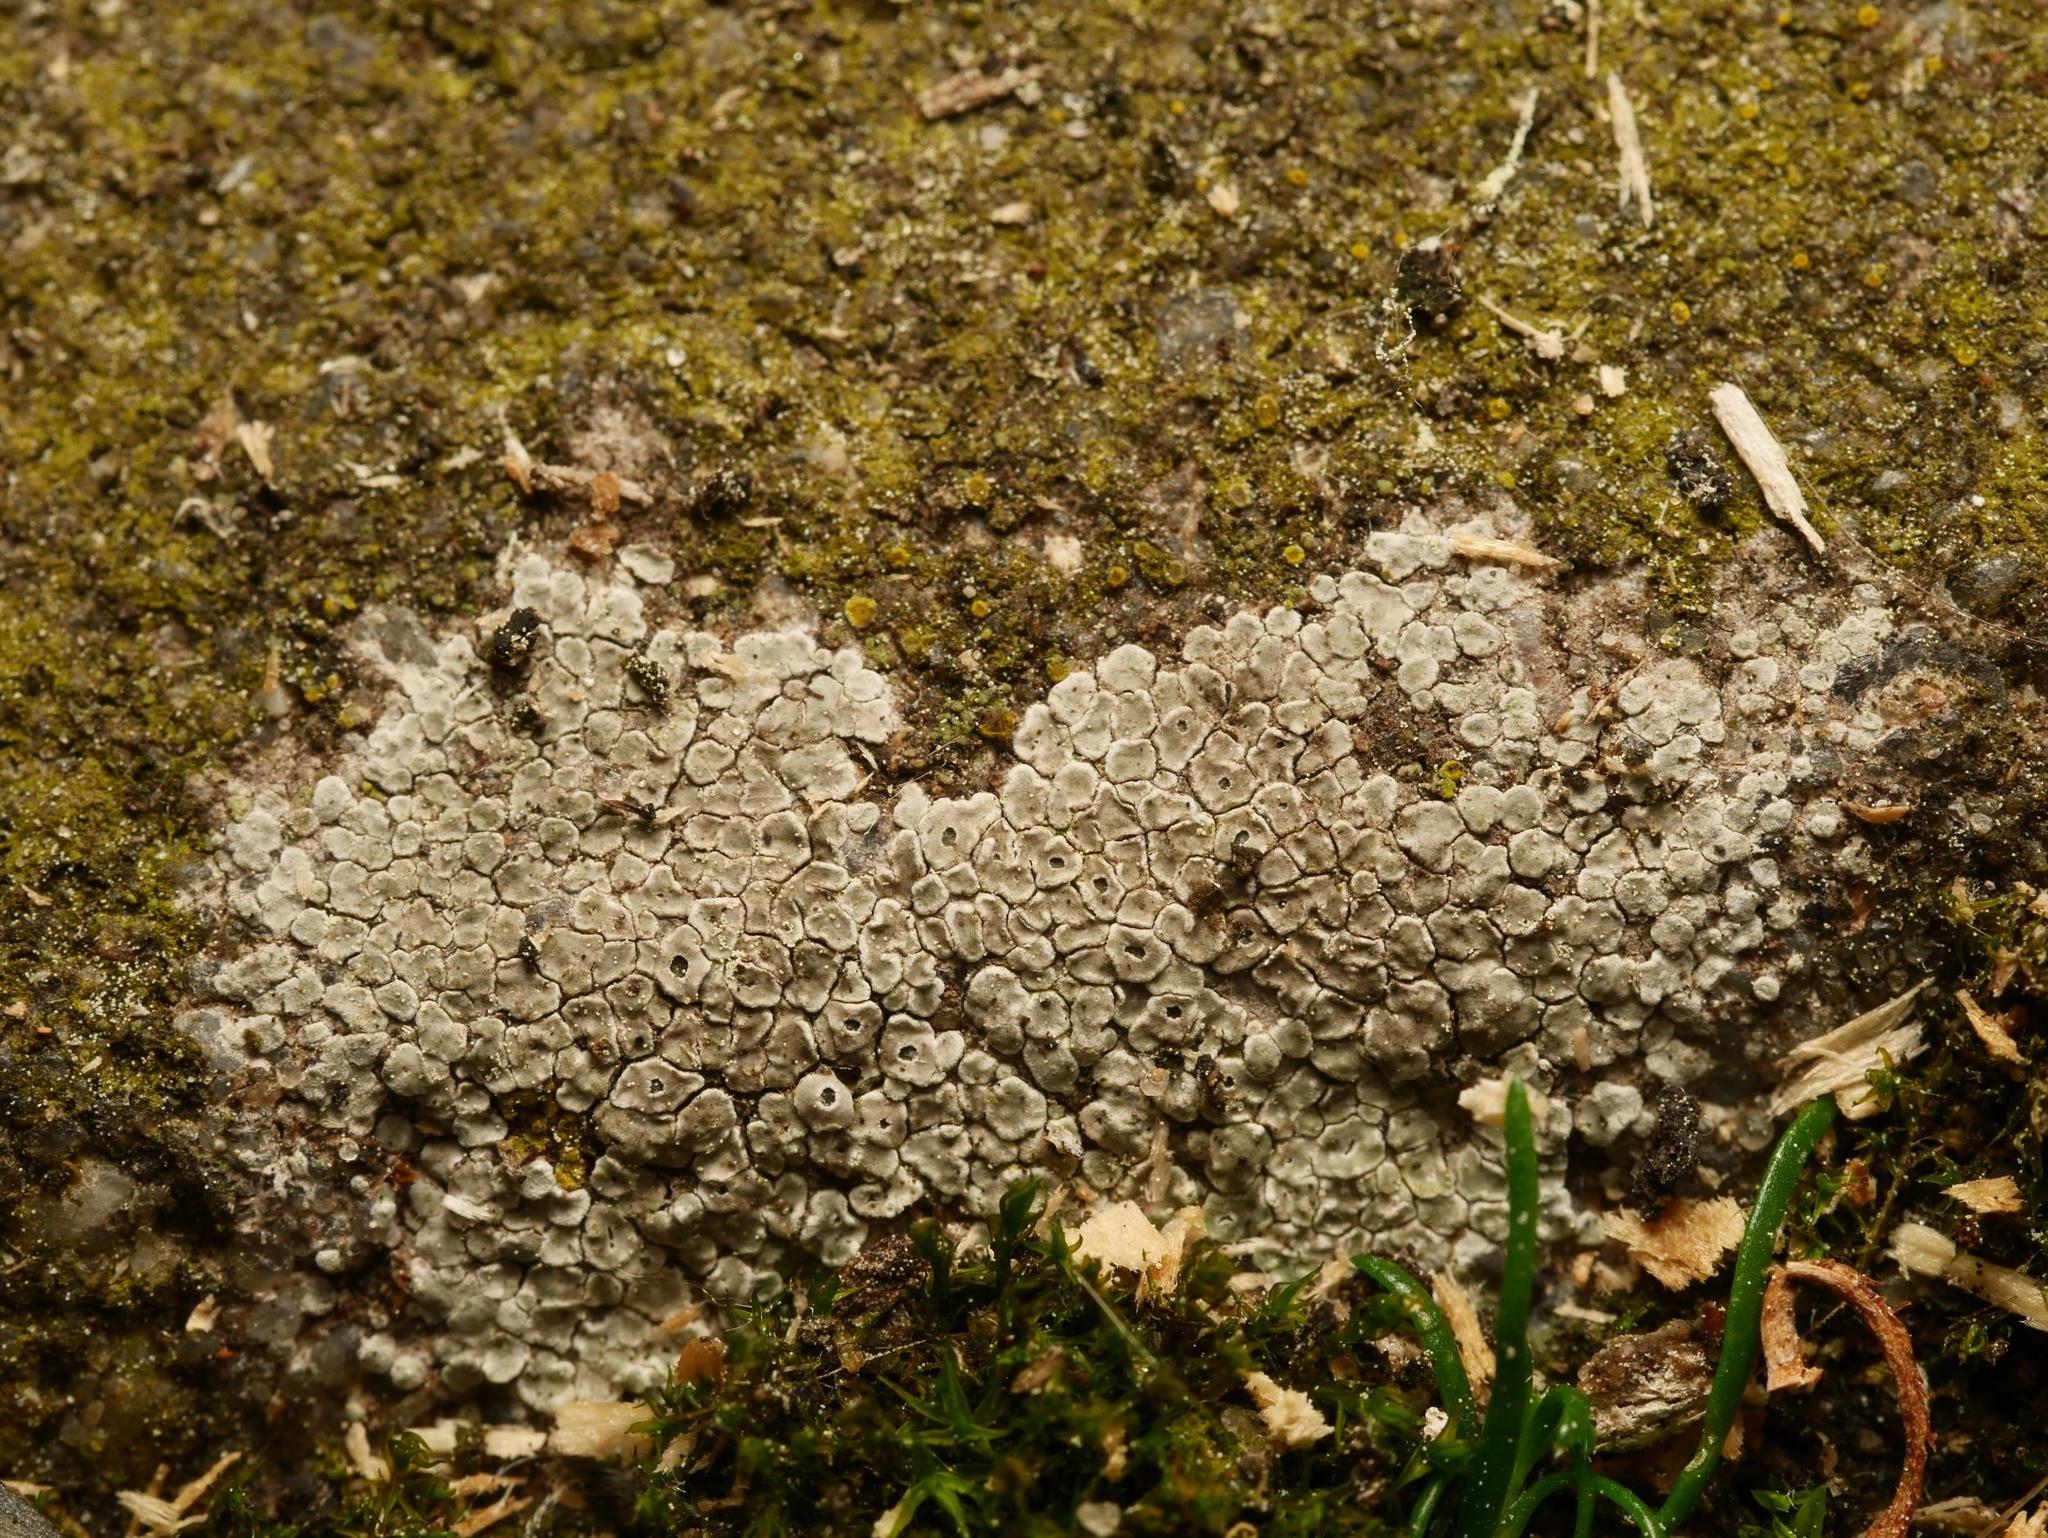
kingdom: Fungi
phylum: Ascomycota
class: Lecanoromycetes
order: Pertusariales
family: Megasporaceae
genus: Circinaria
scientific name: Circinaria contorta
